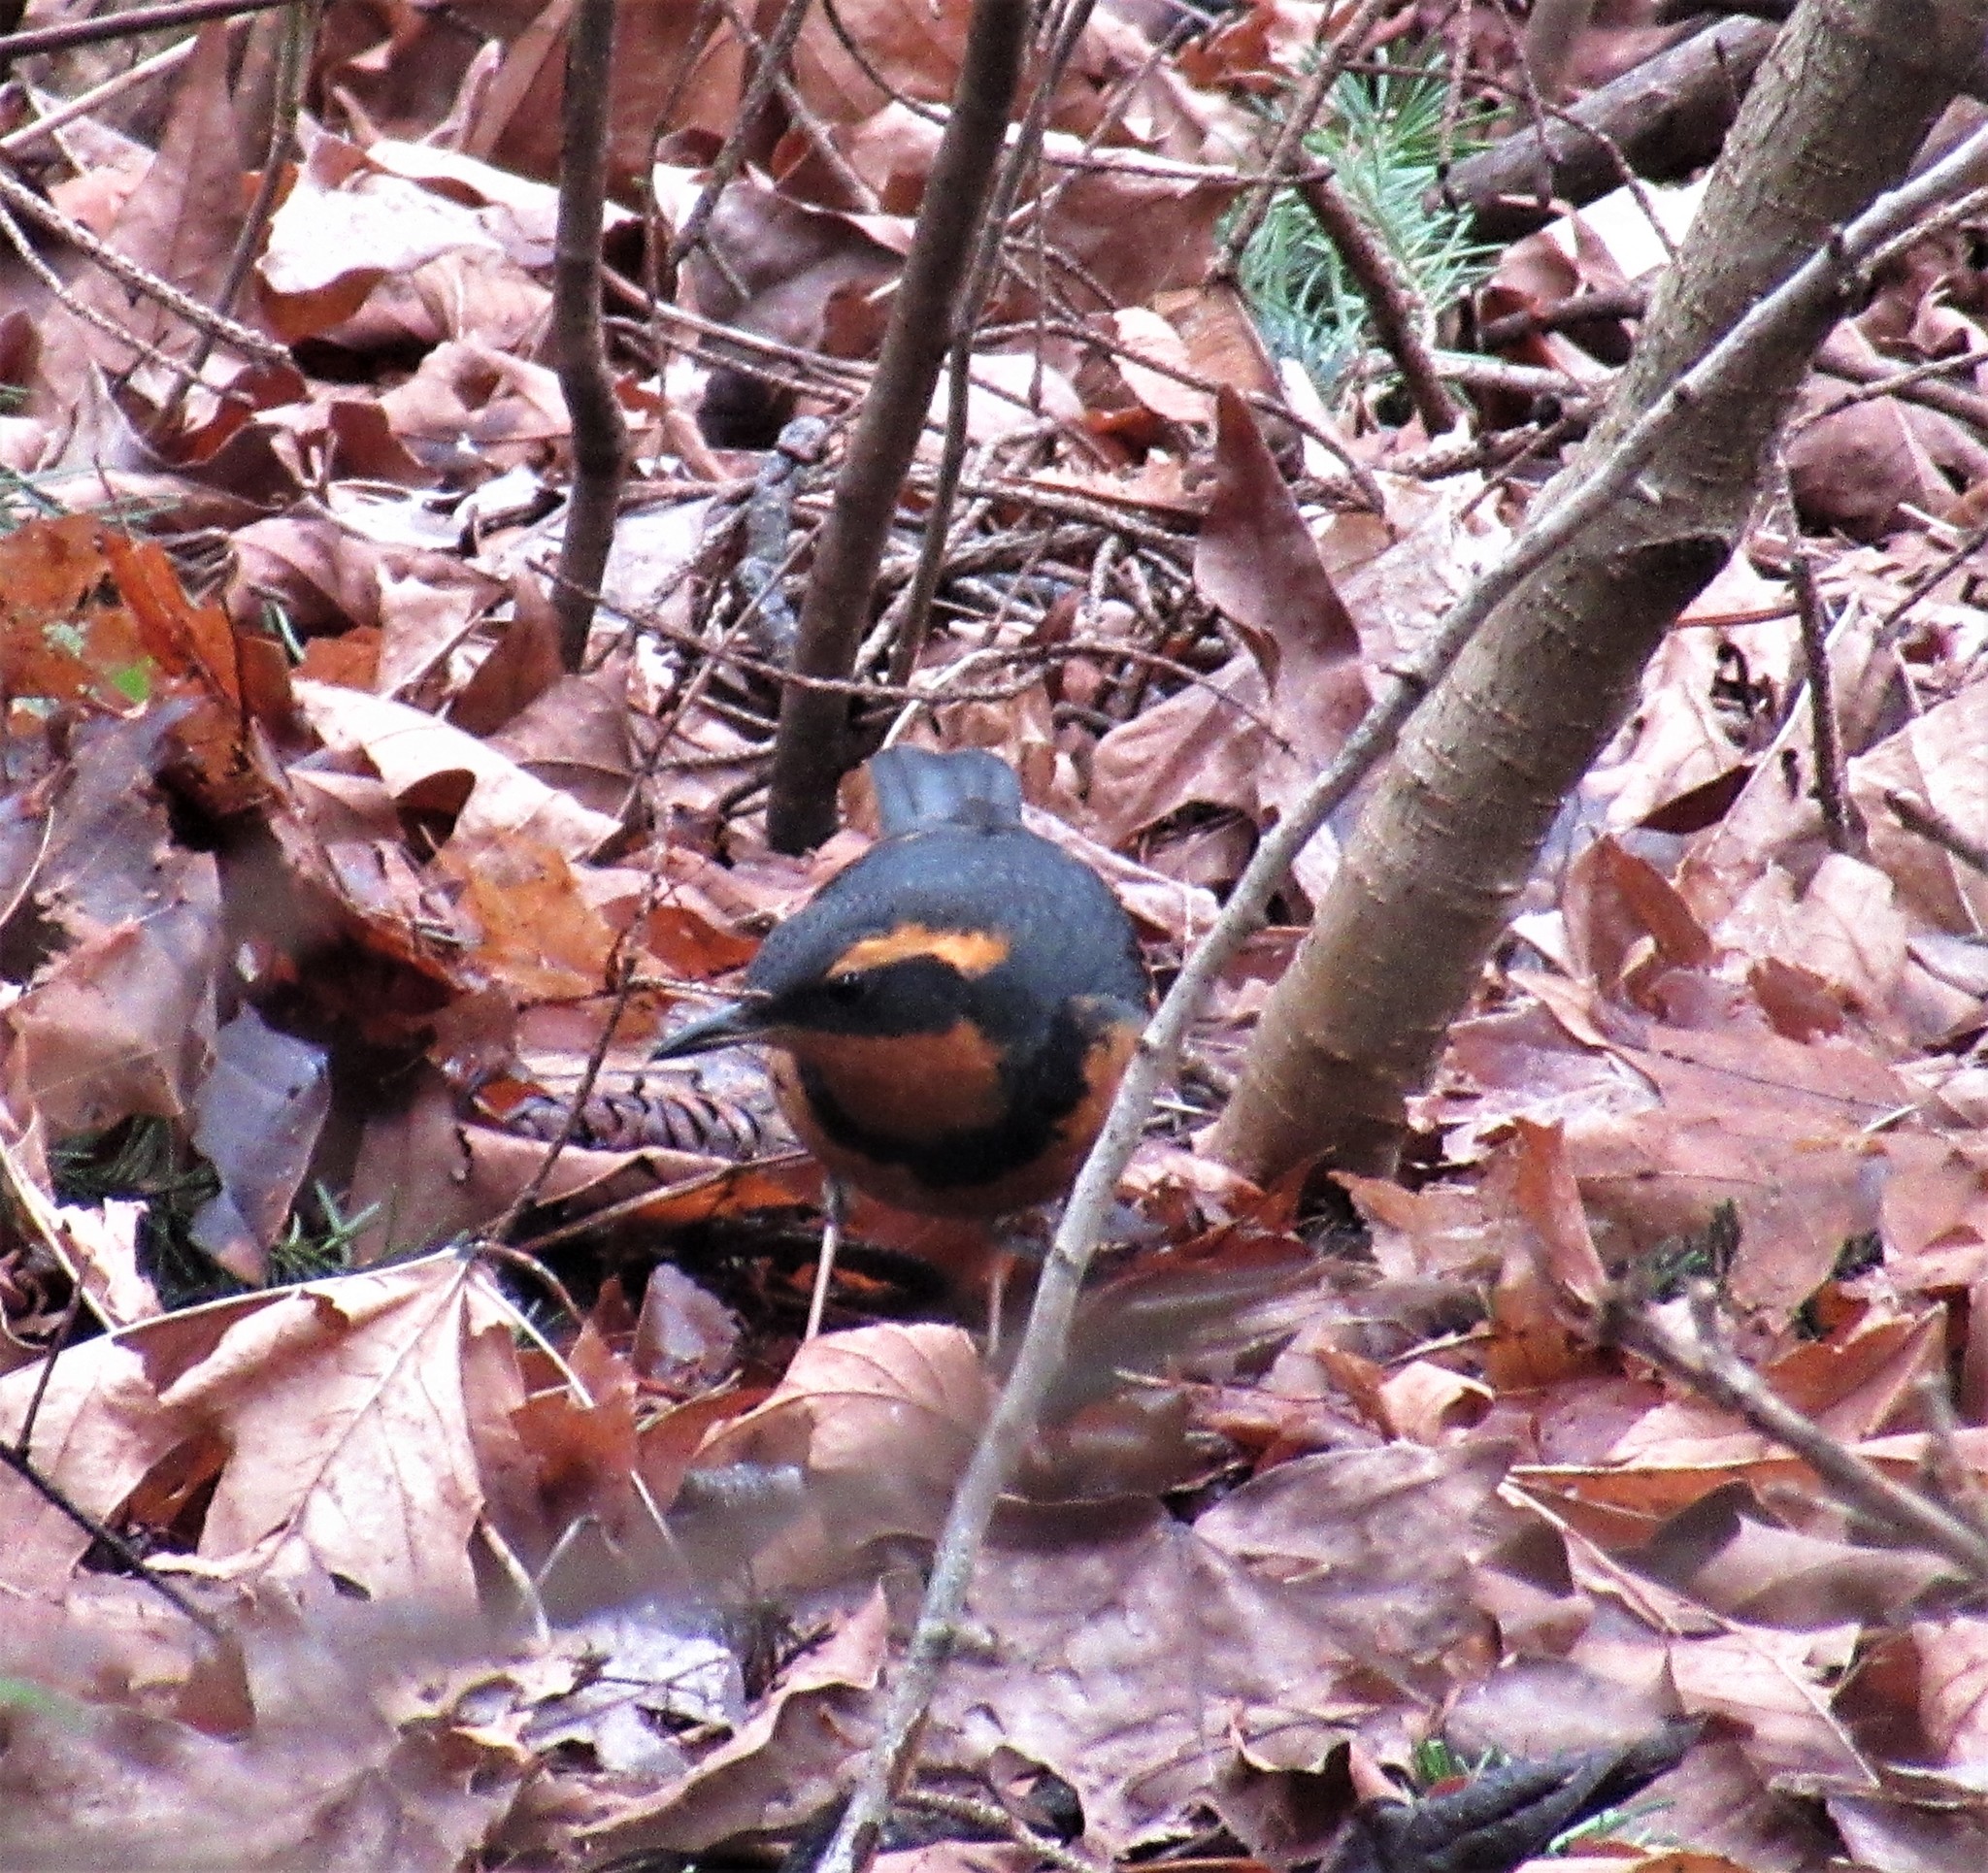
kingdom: Animalia
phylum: Chordata
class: Aves
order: Passeriformes
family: Turdidae
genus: Ixoreus
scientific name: Ixoreus naevius
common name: Varied thrush
